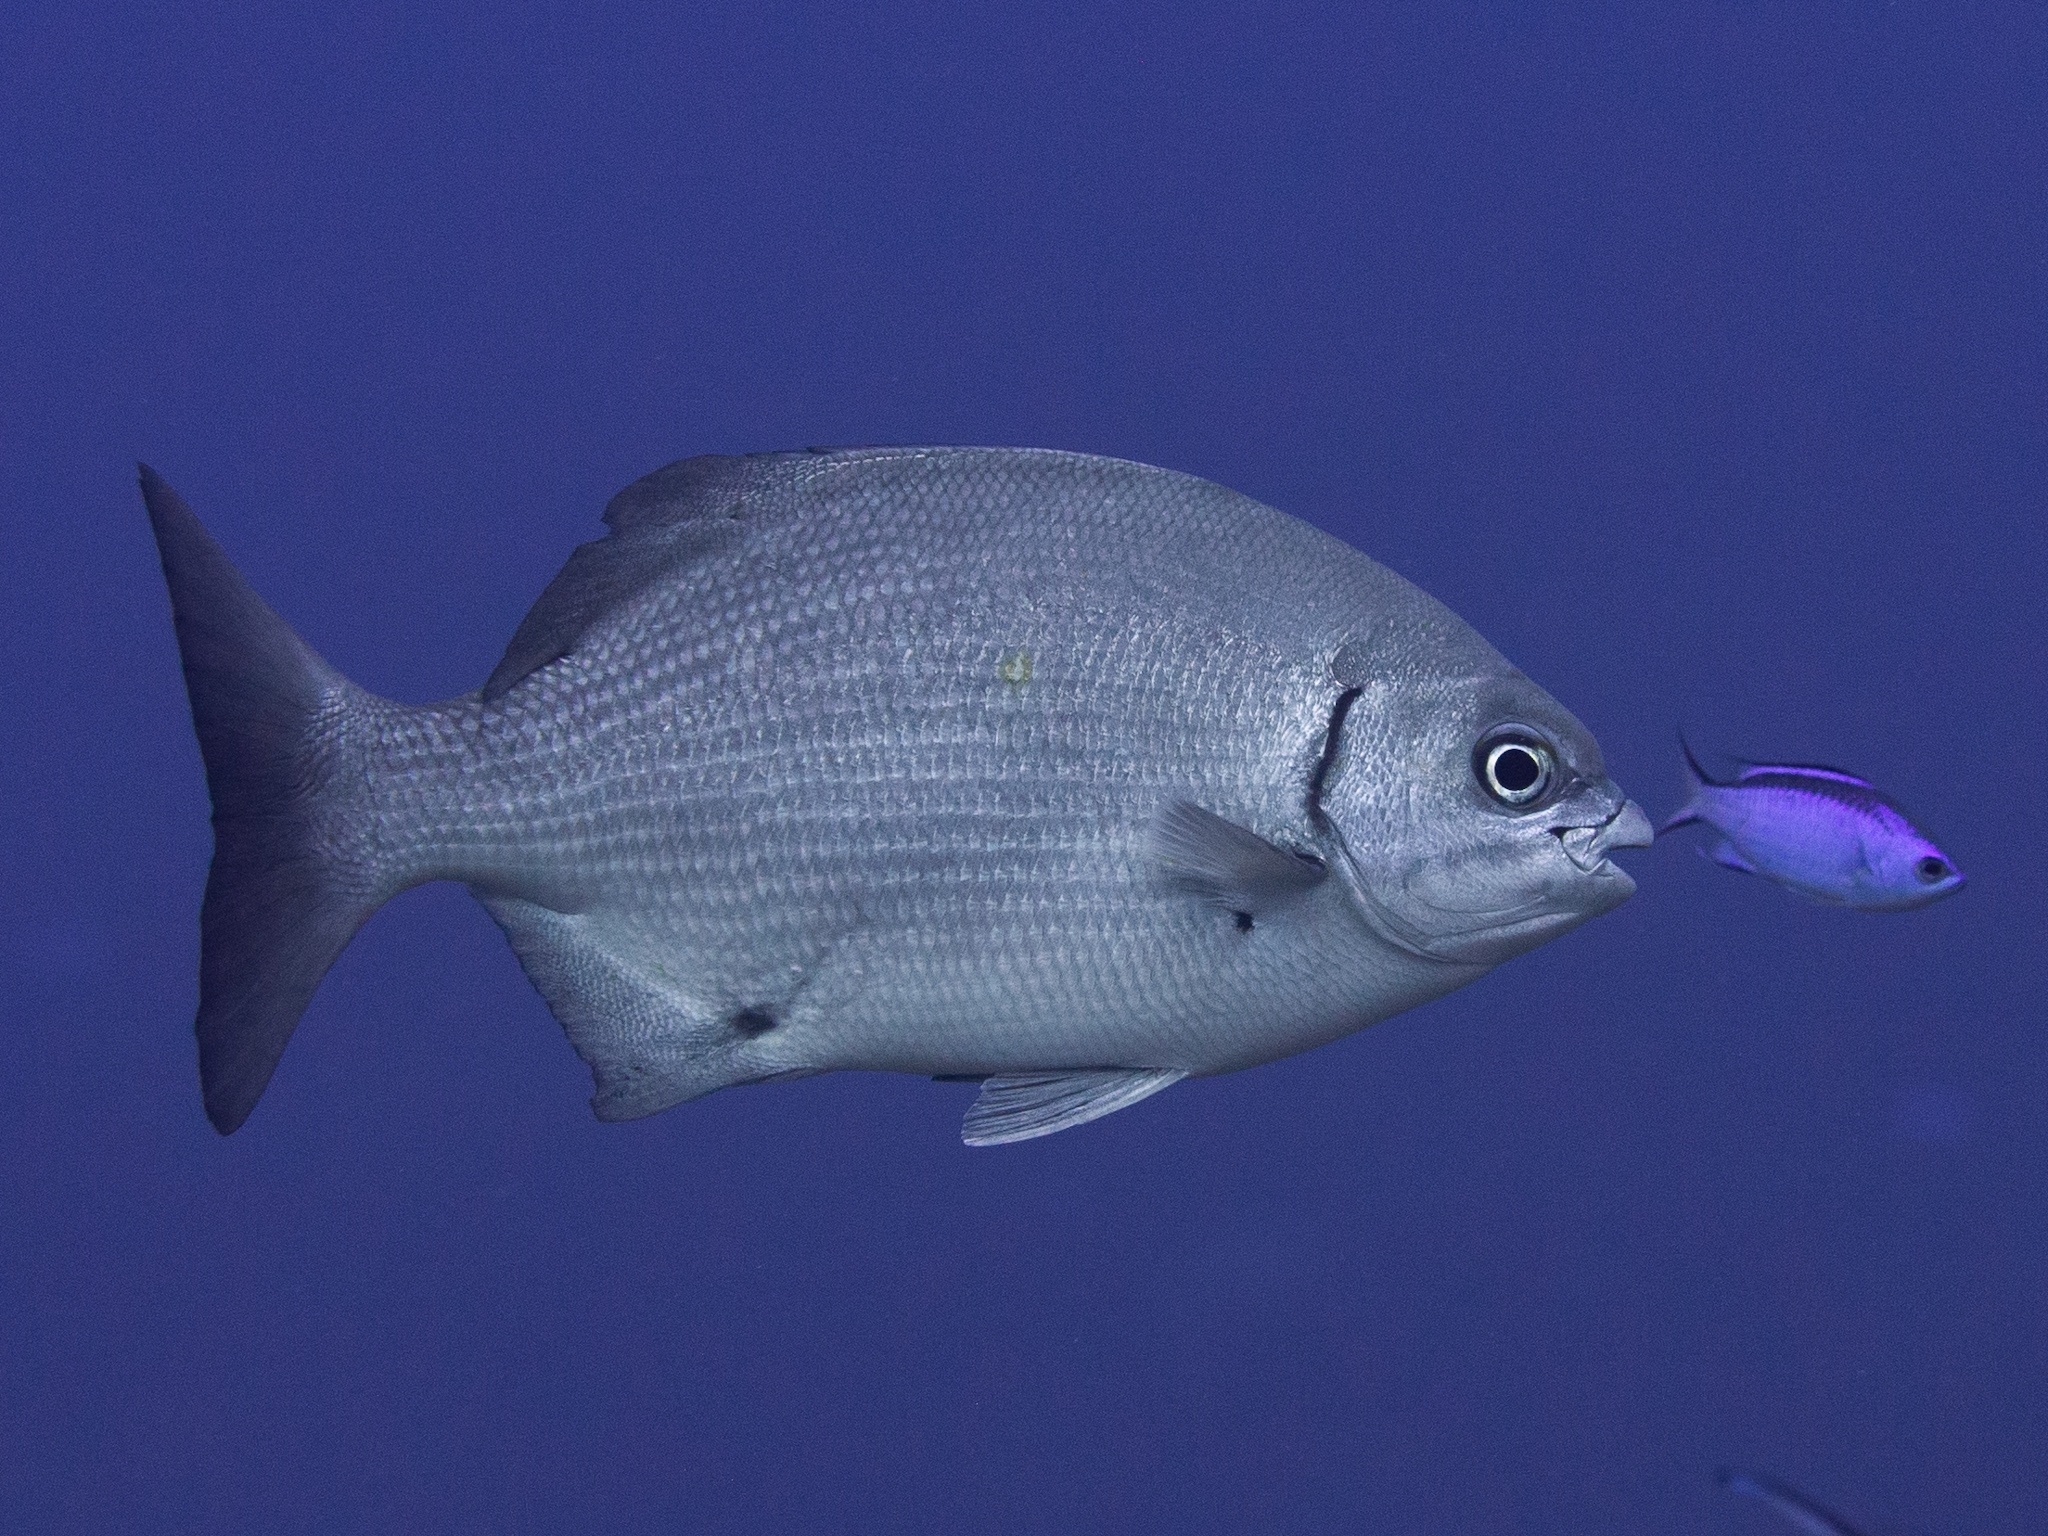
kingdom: Animalia
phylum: Chordata
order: Perciformes
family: Kyphosidae
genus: Kyphosus
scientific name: Kyphosus sectatrix
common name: Bermuda chub
